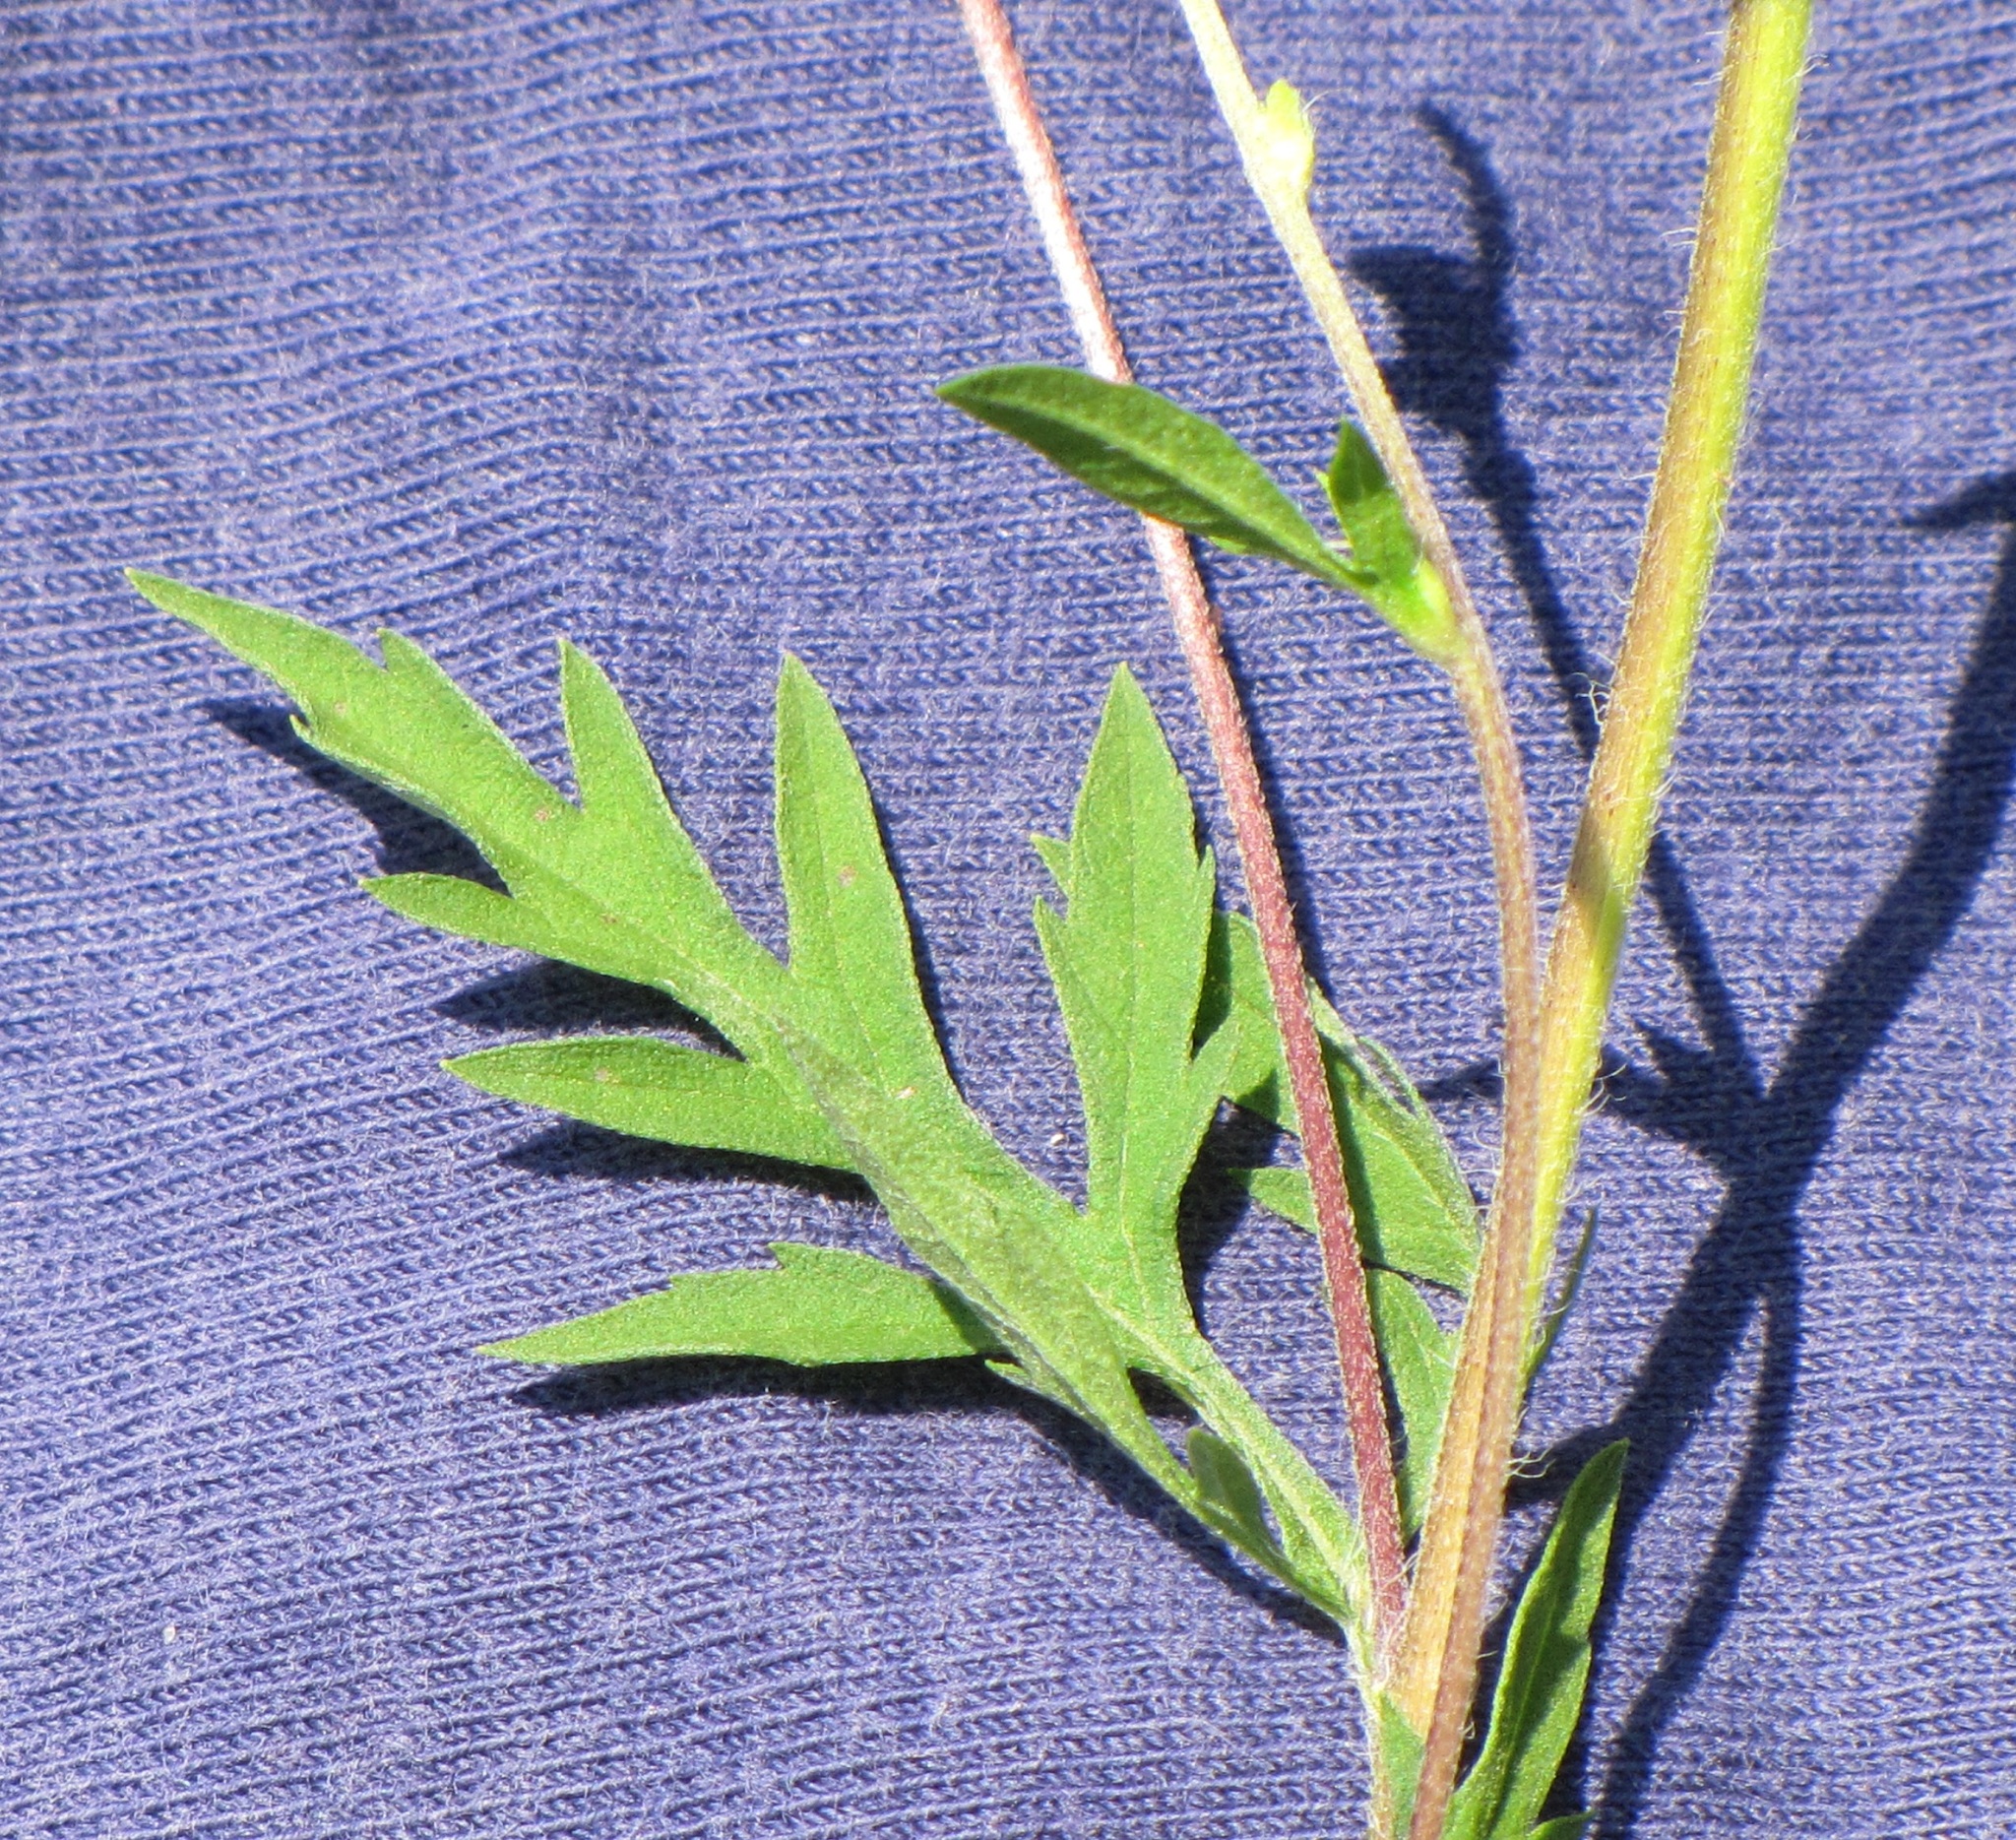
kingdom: Plantae
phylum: Tracheophyta
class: Magnoliopsida
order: Asterales
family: Asteraceae
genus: Ambrosia
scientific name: Ambrosia artemisiifolia
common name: Annual ragweed
